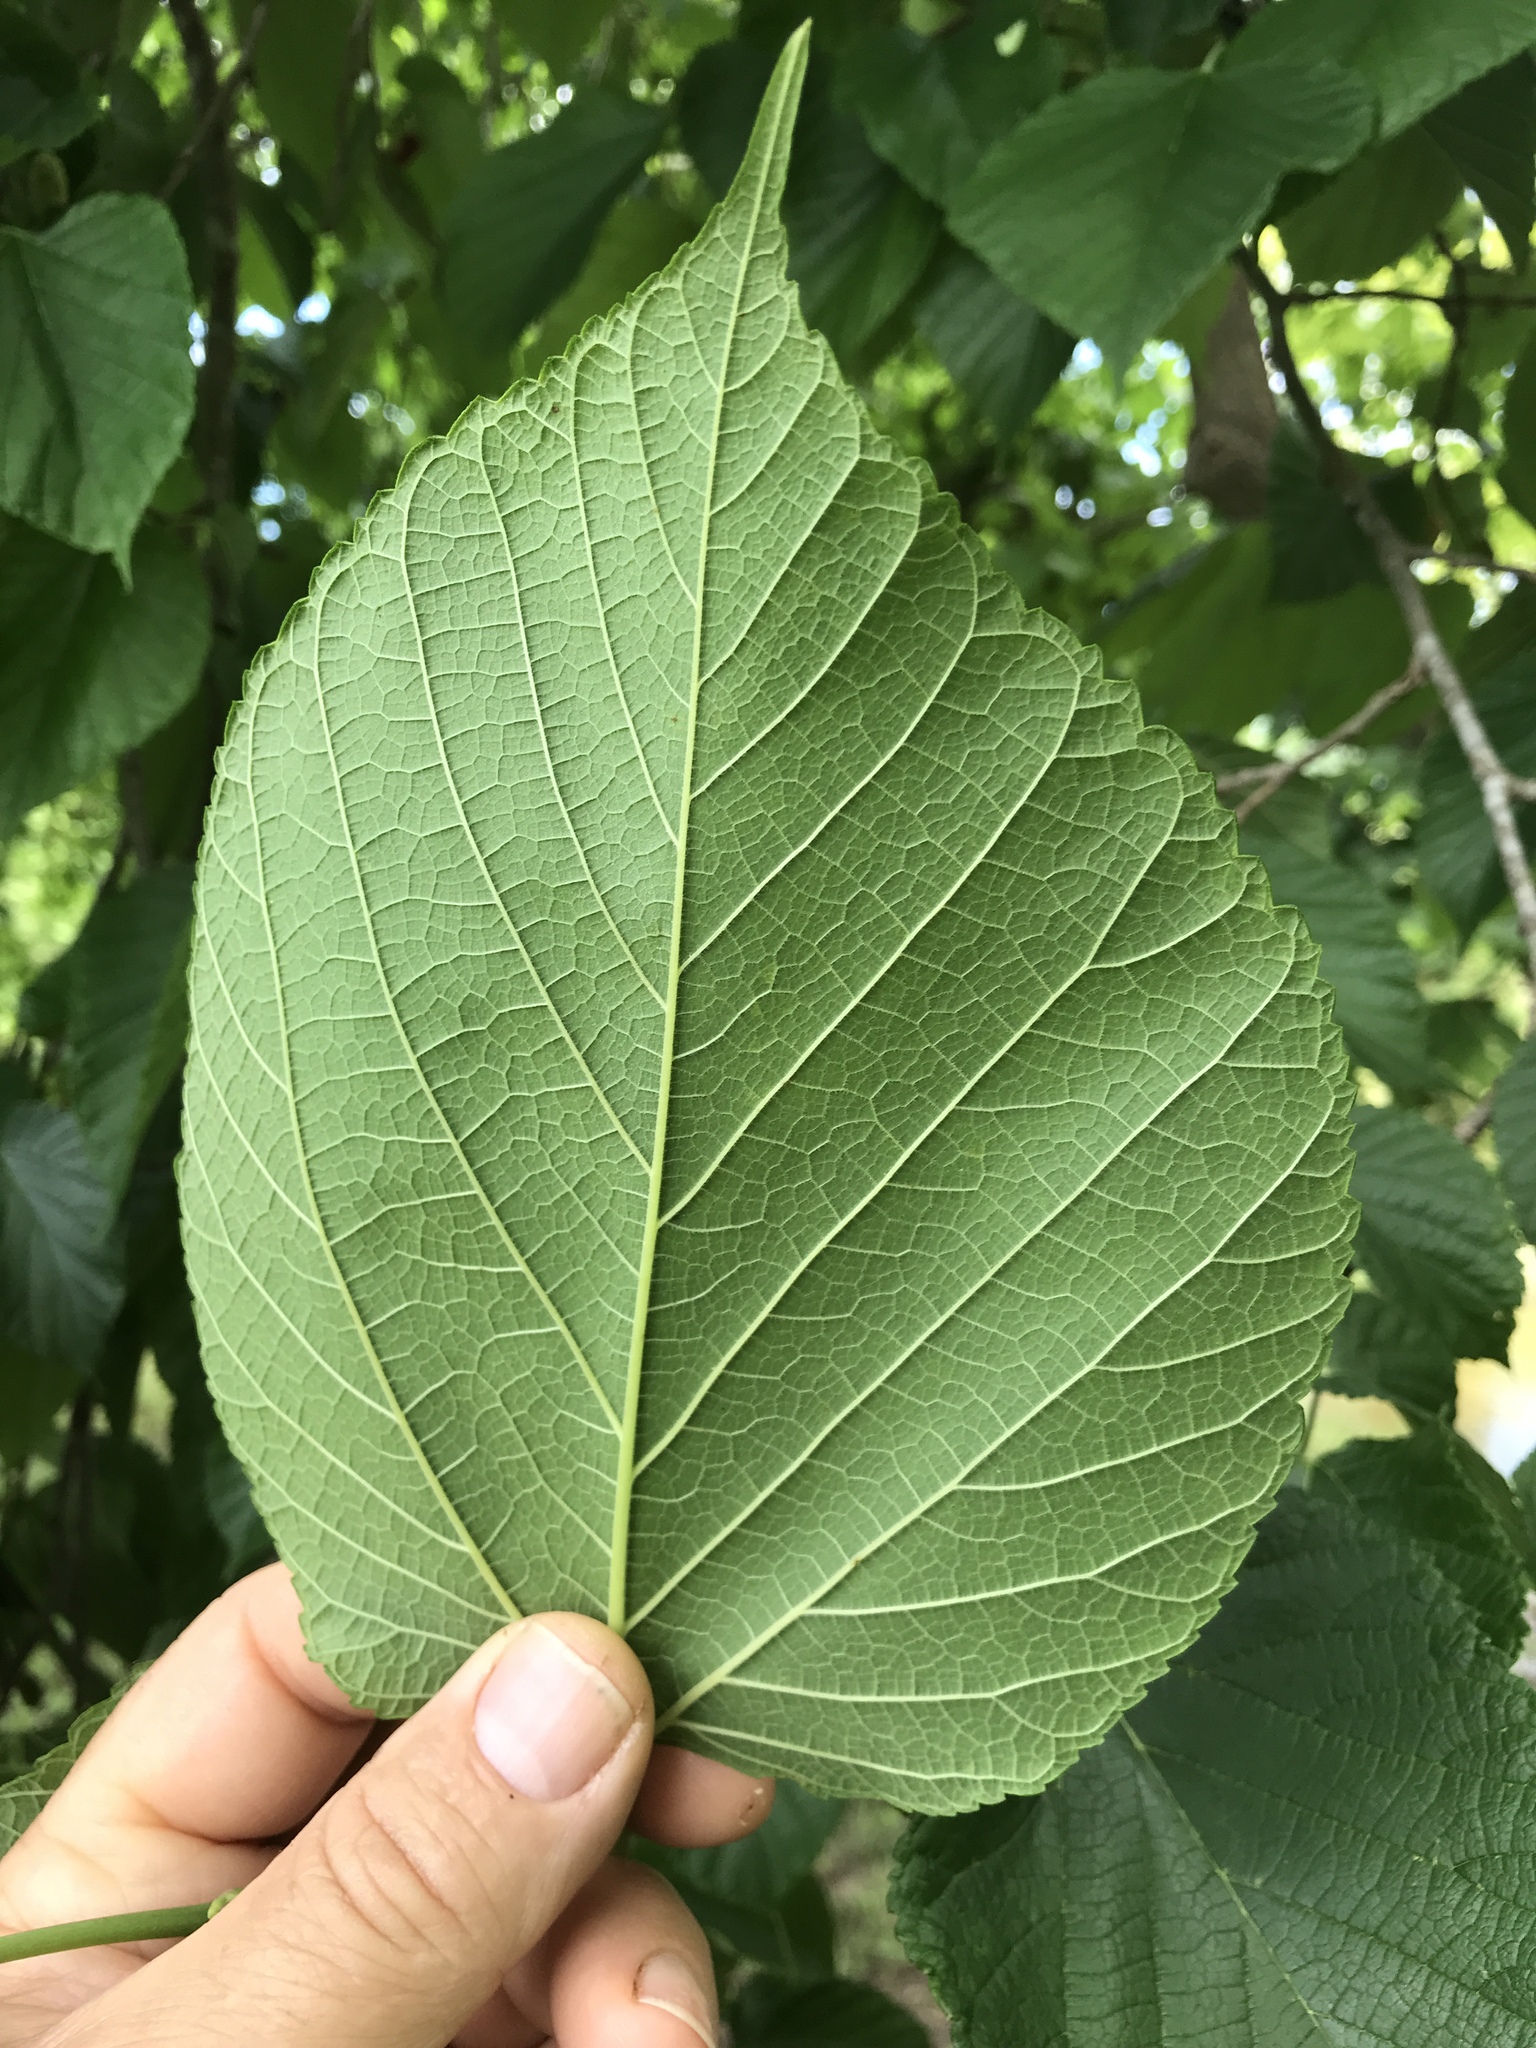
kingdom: Plantae
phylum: Tracheophyta
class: Magnoliopsida
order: Rosales
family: Moraceae
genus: Morus
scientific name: Morus rubra
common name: Red mulberry
